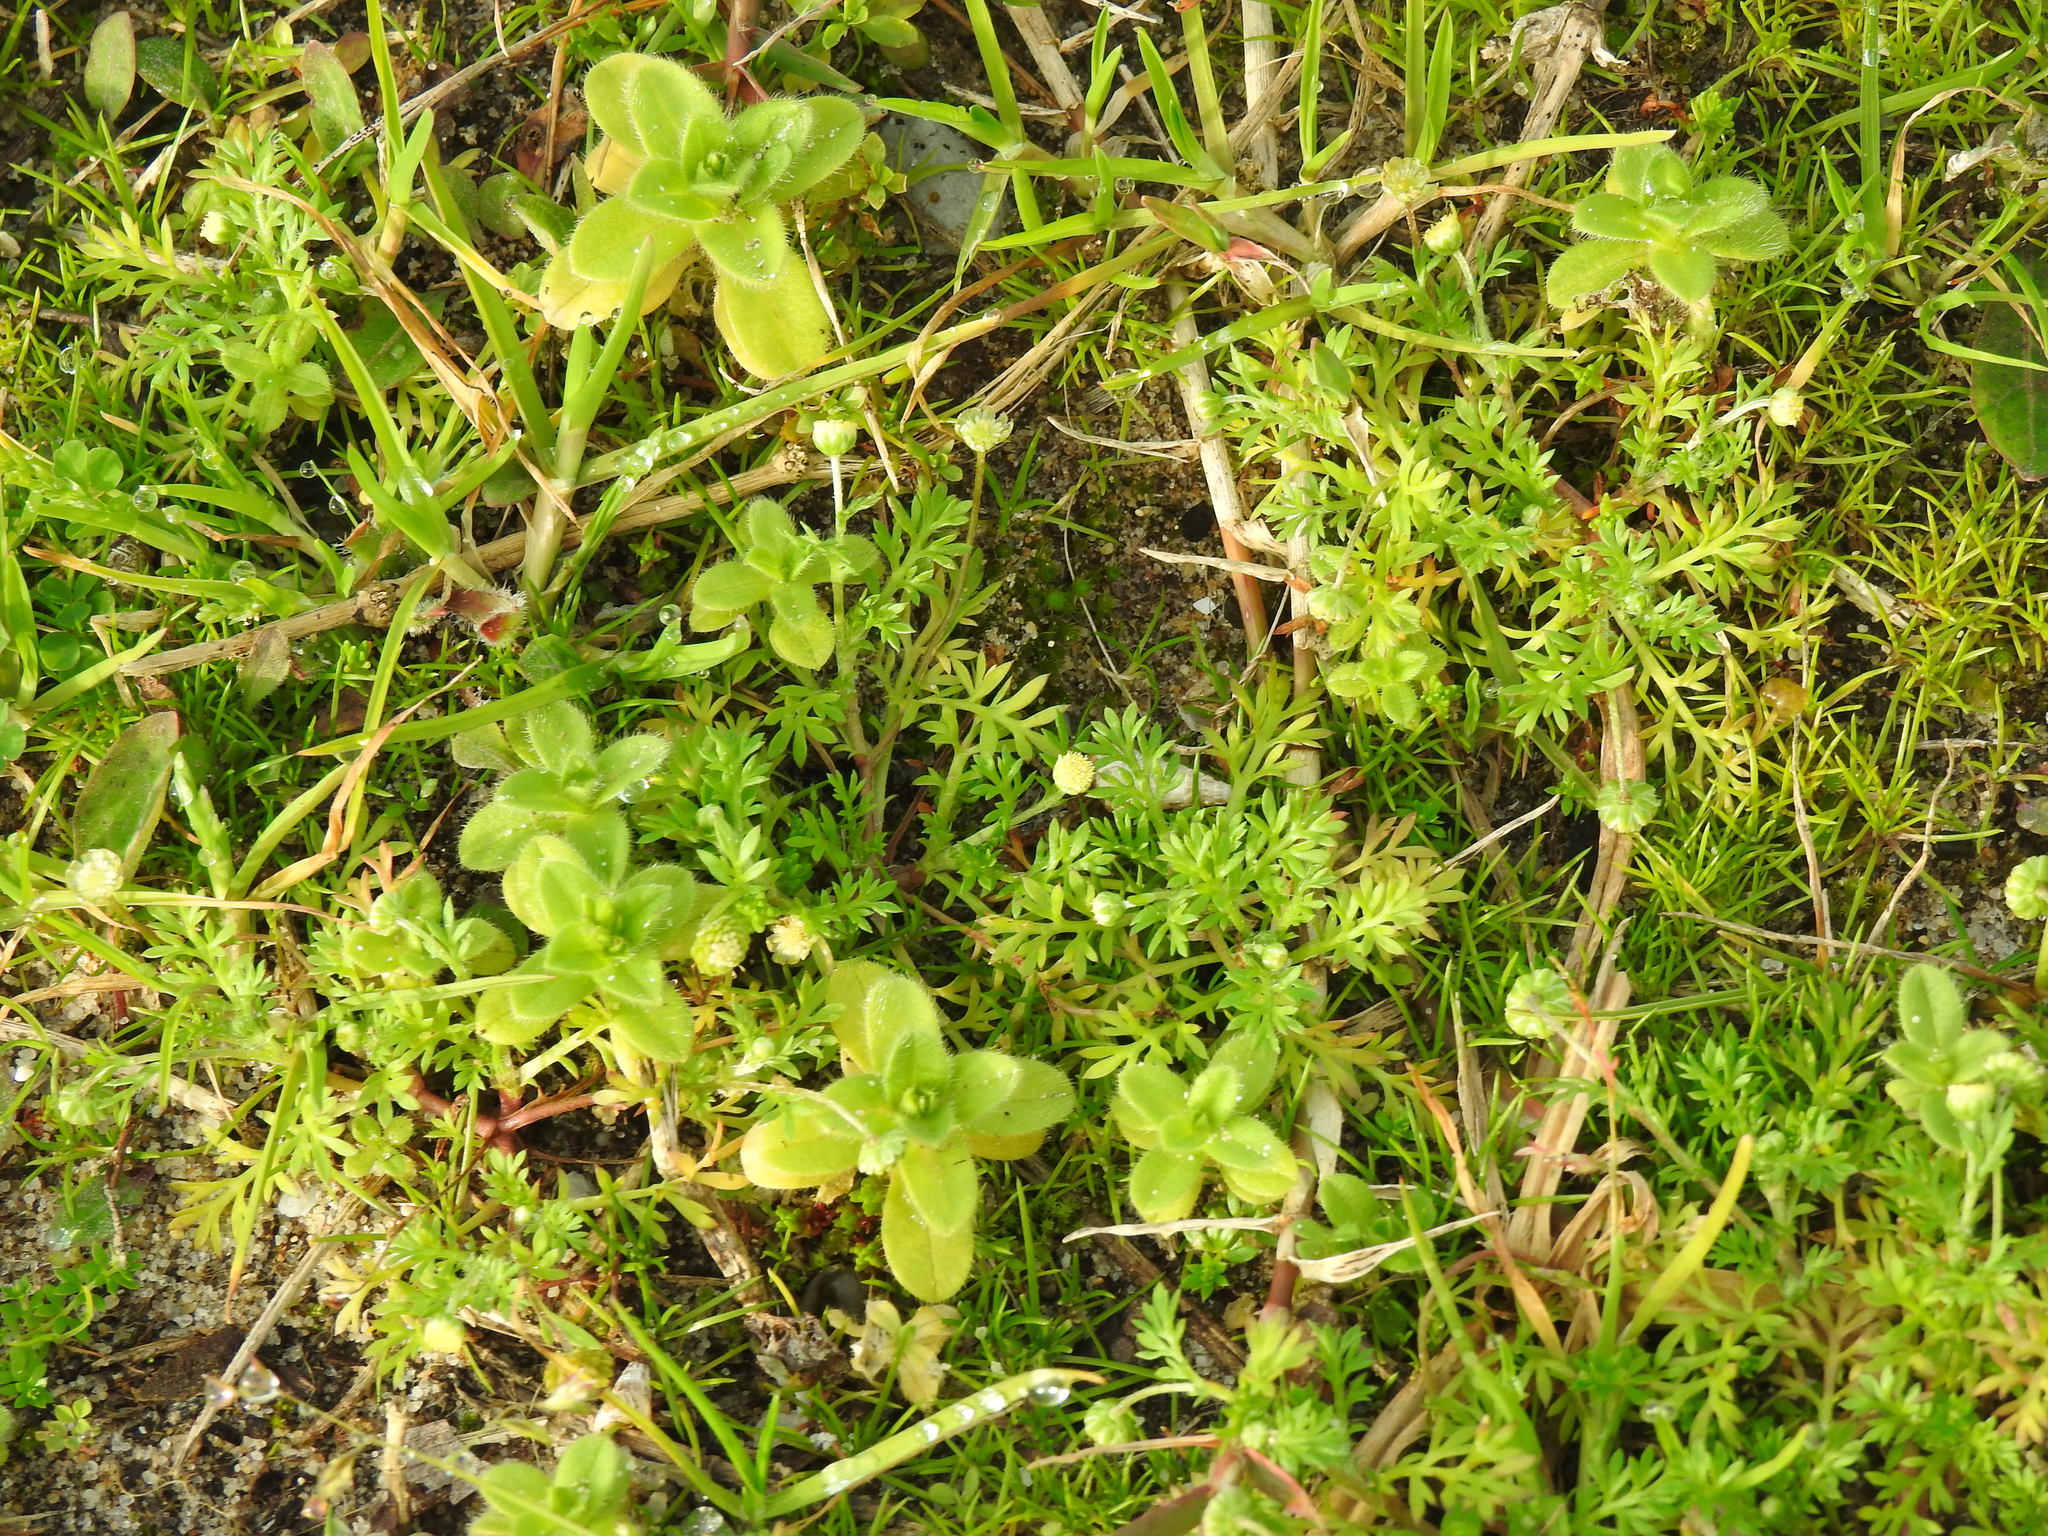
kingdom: Plantae
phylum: Tracheophyta
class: Magnoliopsida
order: Asterales
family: Asteraceae
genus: Cotula
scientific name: Cotula australis
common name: Australian waterbuttons
